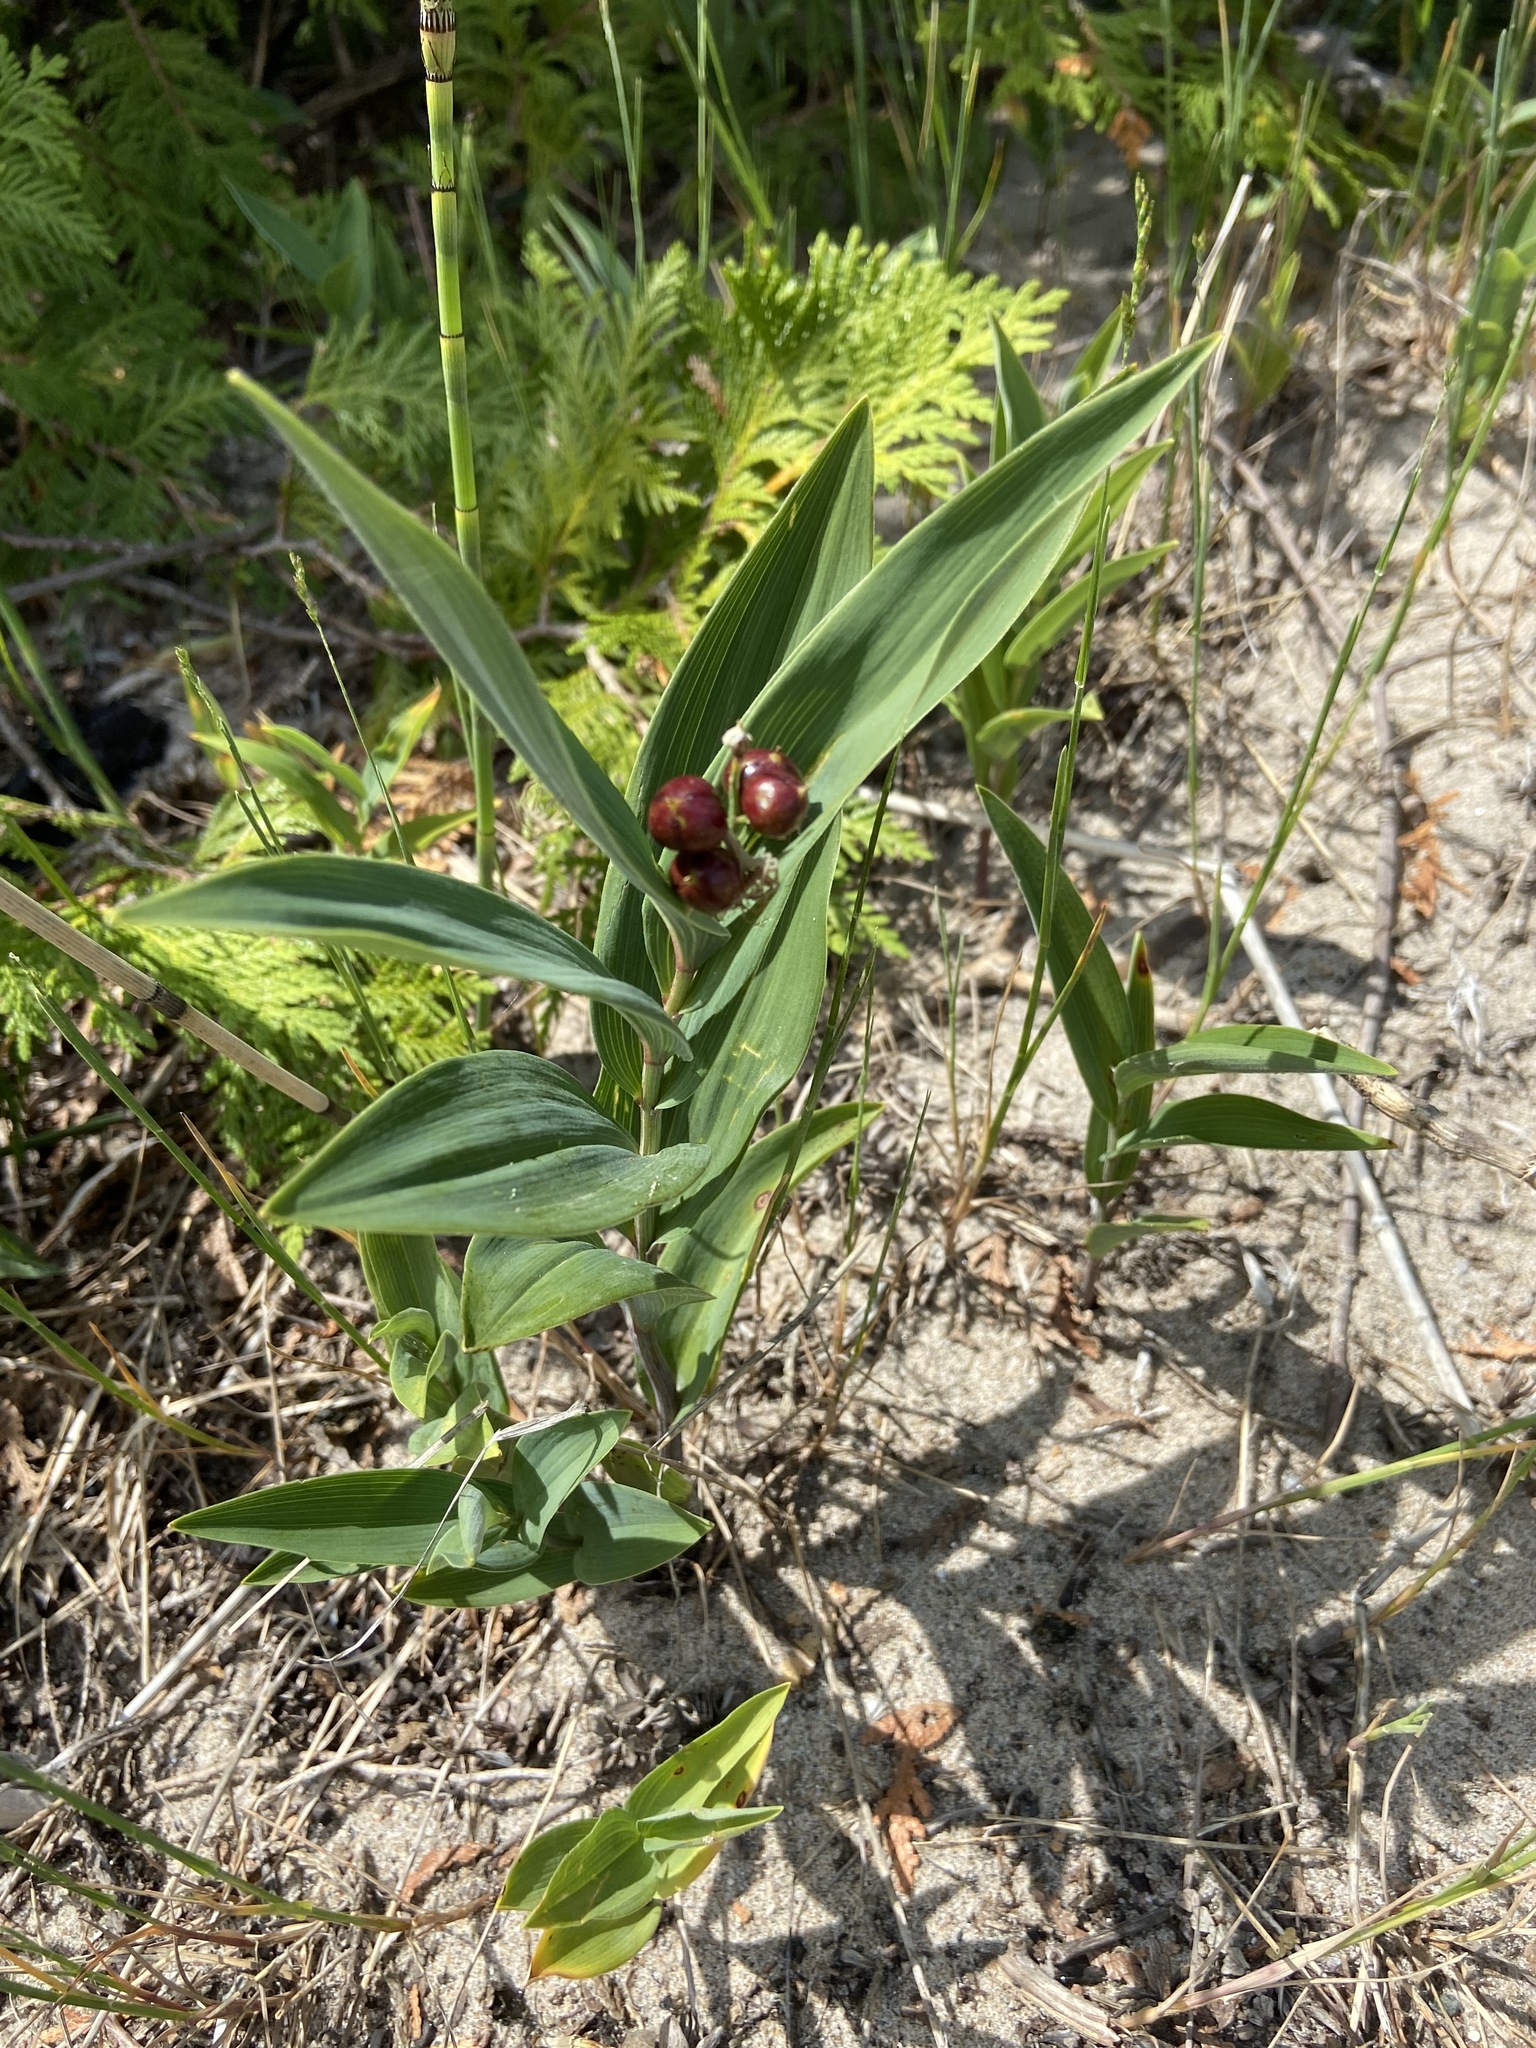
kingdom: Plantae
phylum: Tracheophyta
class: Liliopsida
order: Asparagales
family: Asparagaceae
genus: Maianthemum
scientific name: Maianthemum stellatum
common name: Little false solomon's seal
